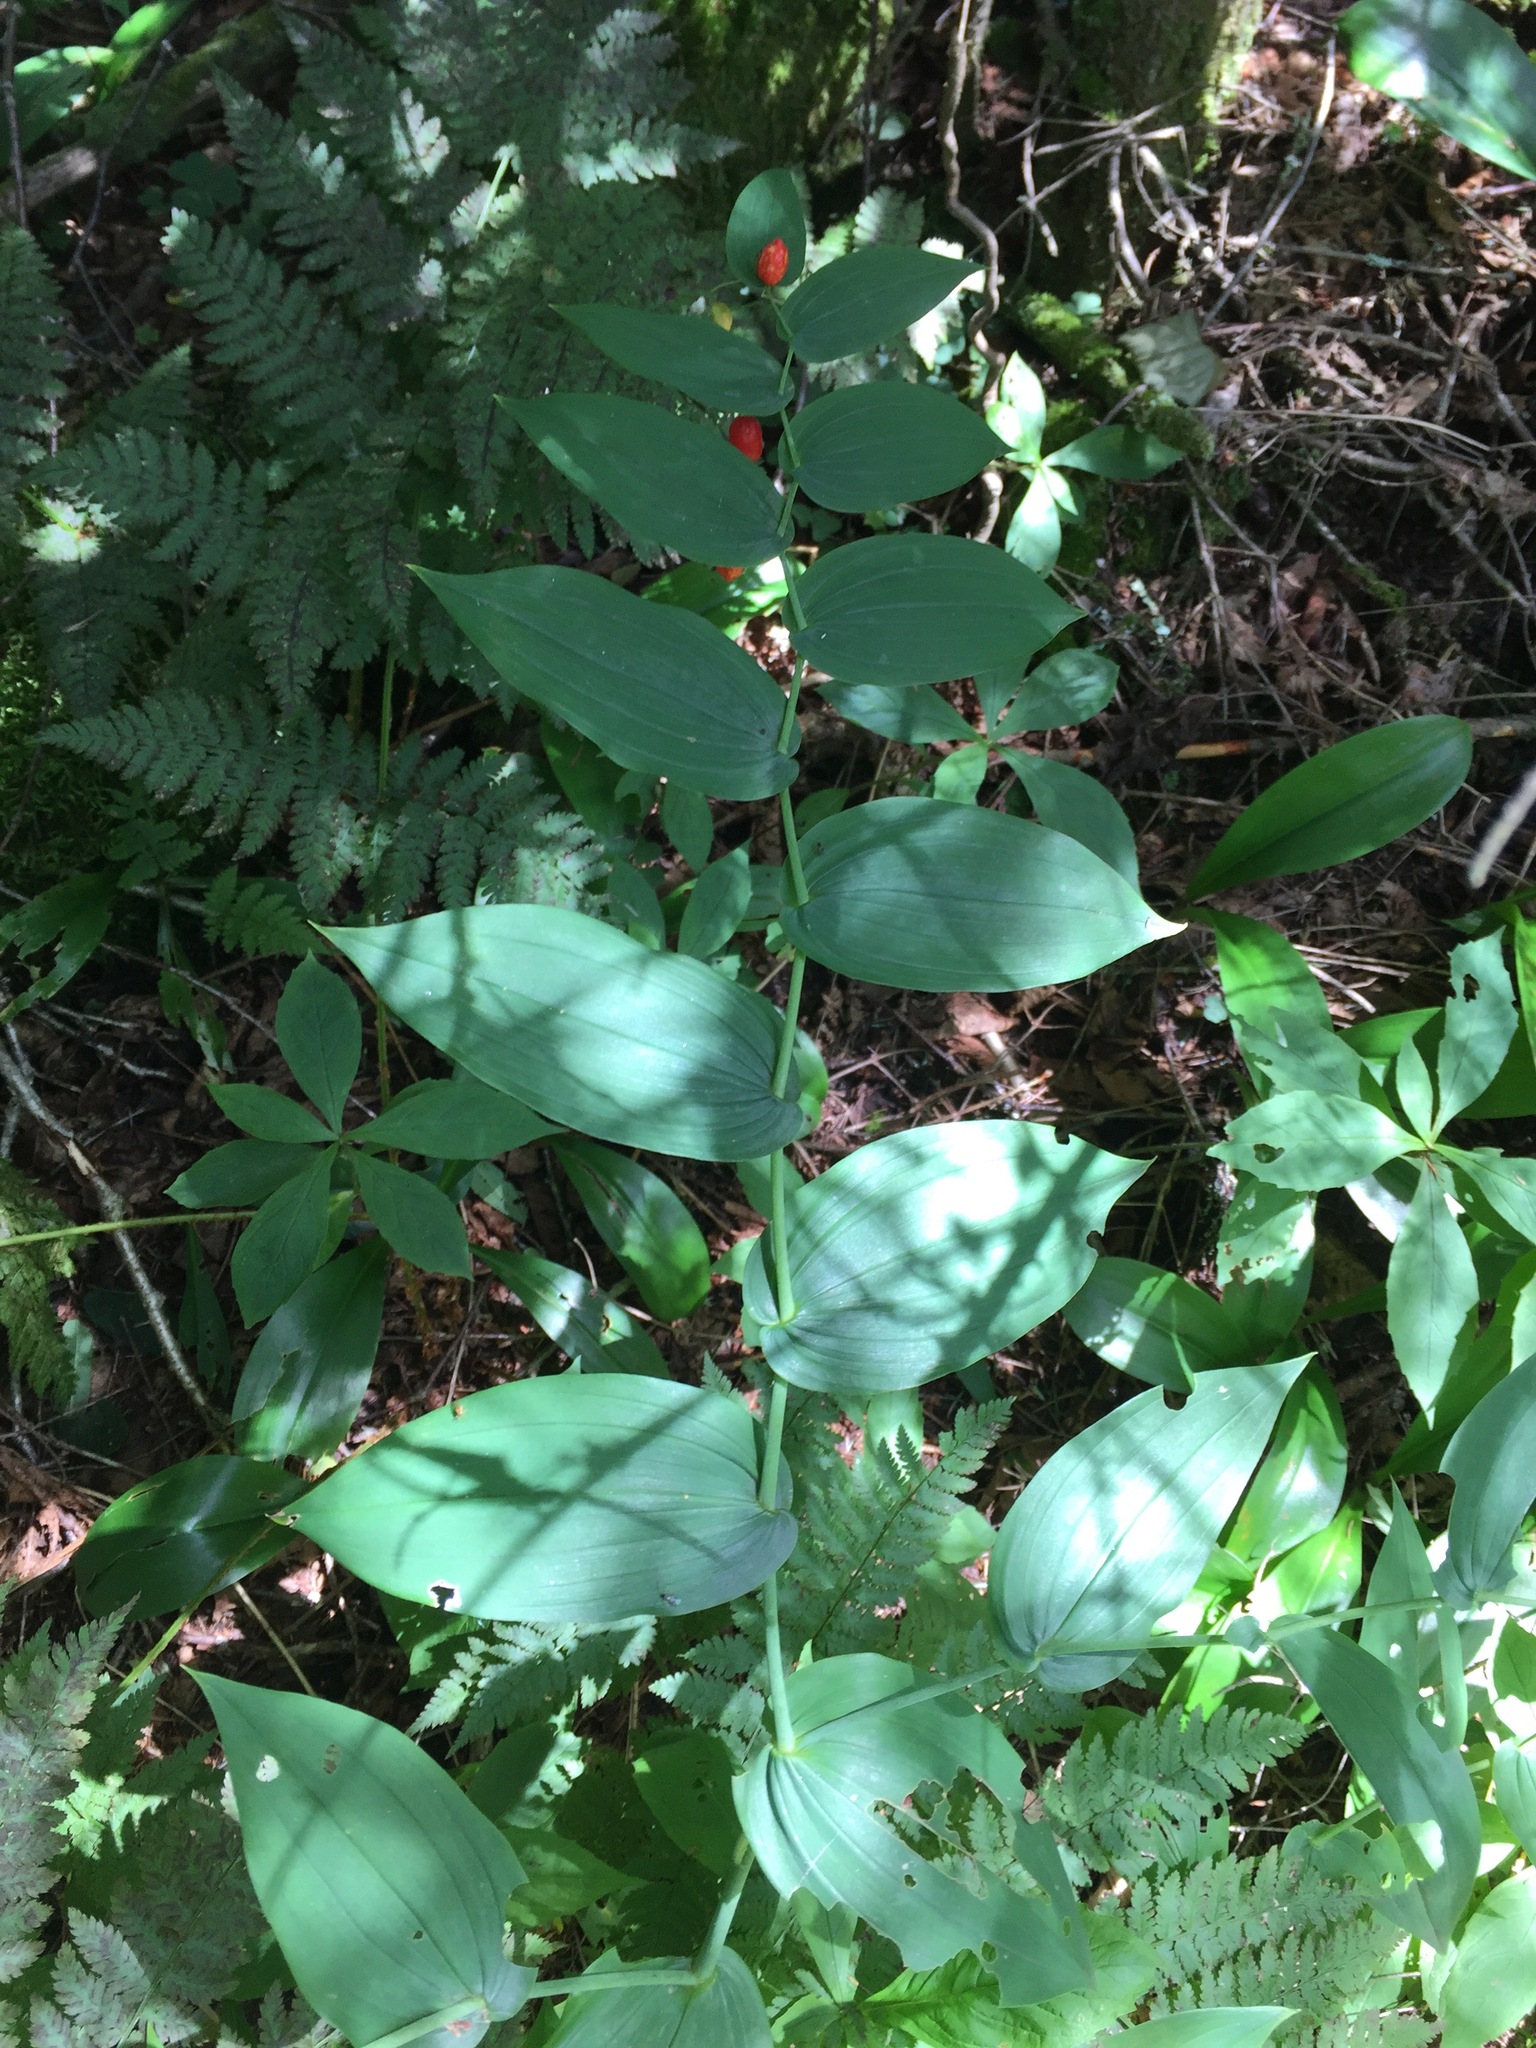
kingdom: Plantae
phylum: Tracheophyta
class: Liliopsida
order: Liliales
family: Liliaceae
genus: Streptopus
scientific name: Streptopus amplexifolius
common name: Clasp twisted stalk
